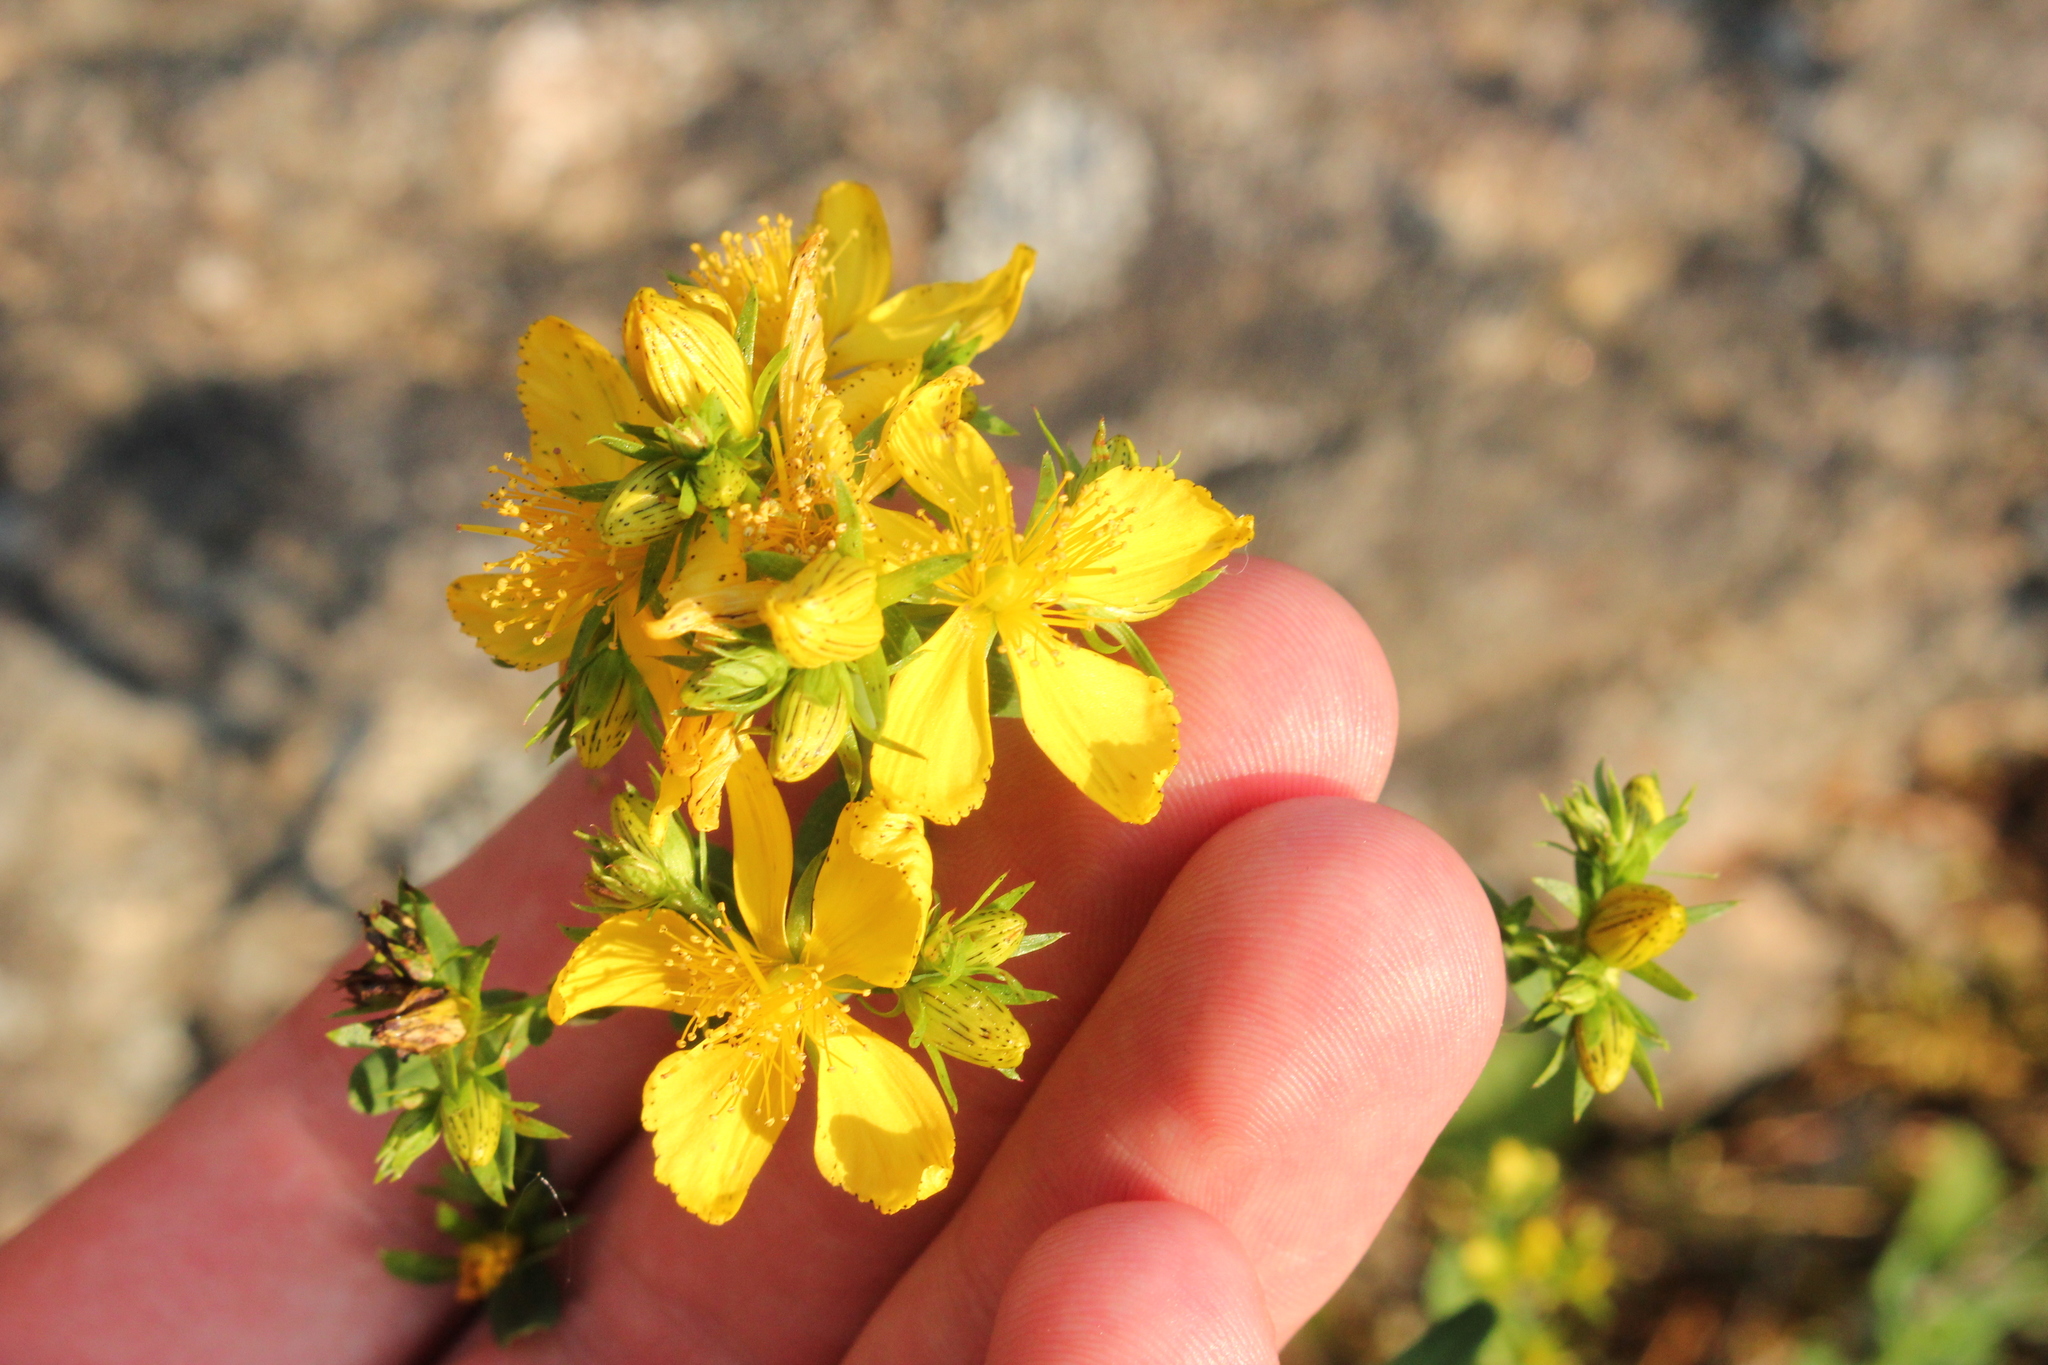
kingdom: Plantae
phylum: Tracheophyta
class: Magnoliopsida
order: Malpighiales
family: Hypericaceae
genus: Hypericum
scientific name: Hypericum perforatum
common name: Common st. johnswort
